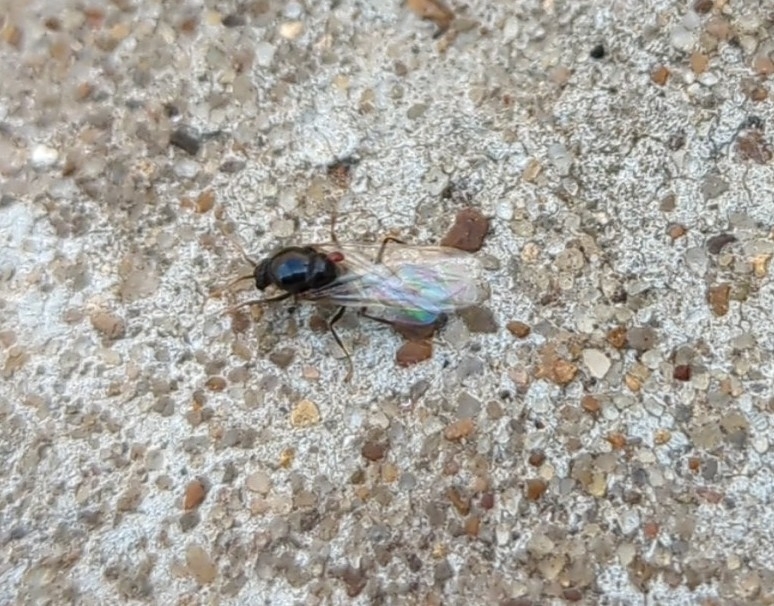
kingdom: Animalia
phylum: Arthropoda
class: Insecta
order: Hymenoptera
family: Formicidae
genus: Solenopsis
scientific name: Solenopsis invicta
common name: Red imported fire ant
